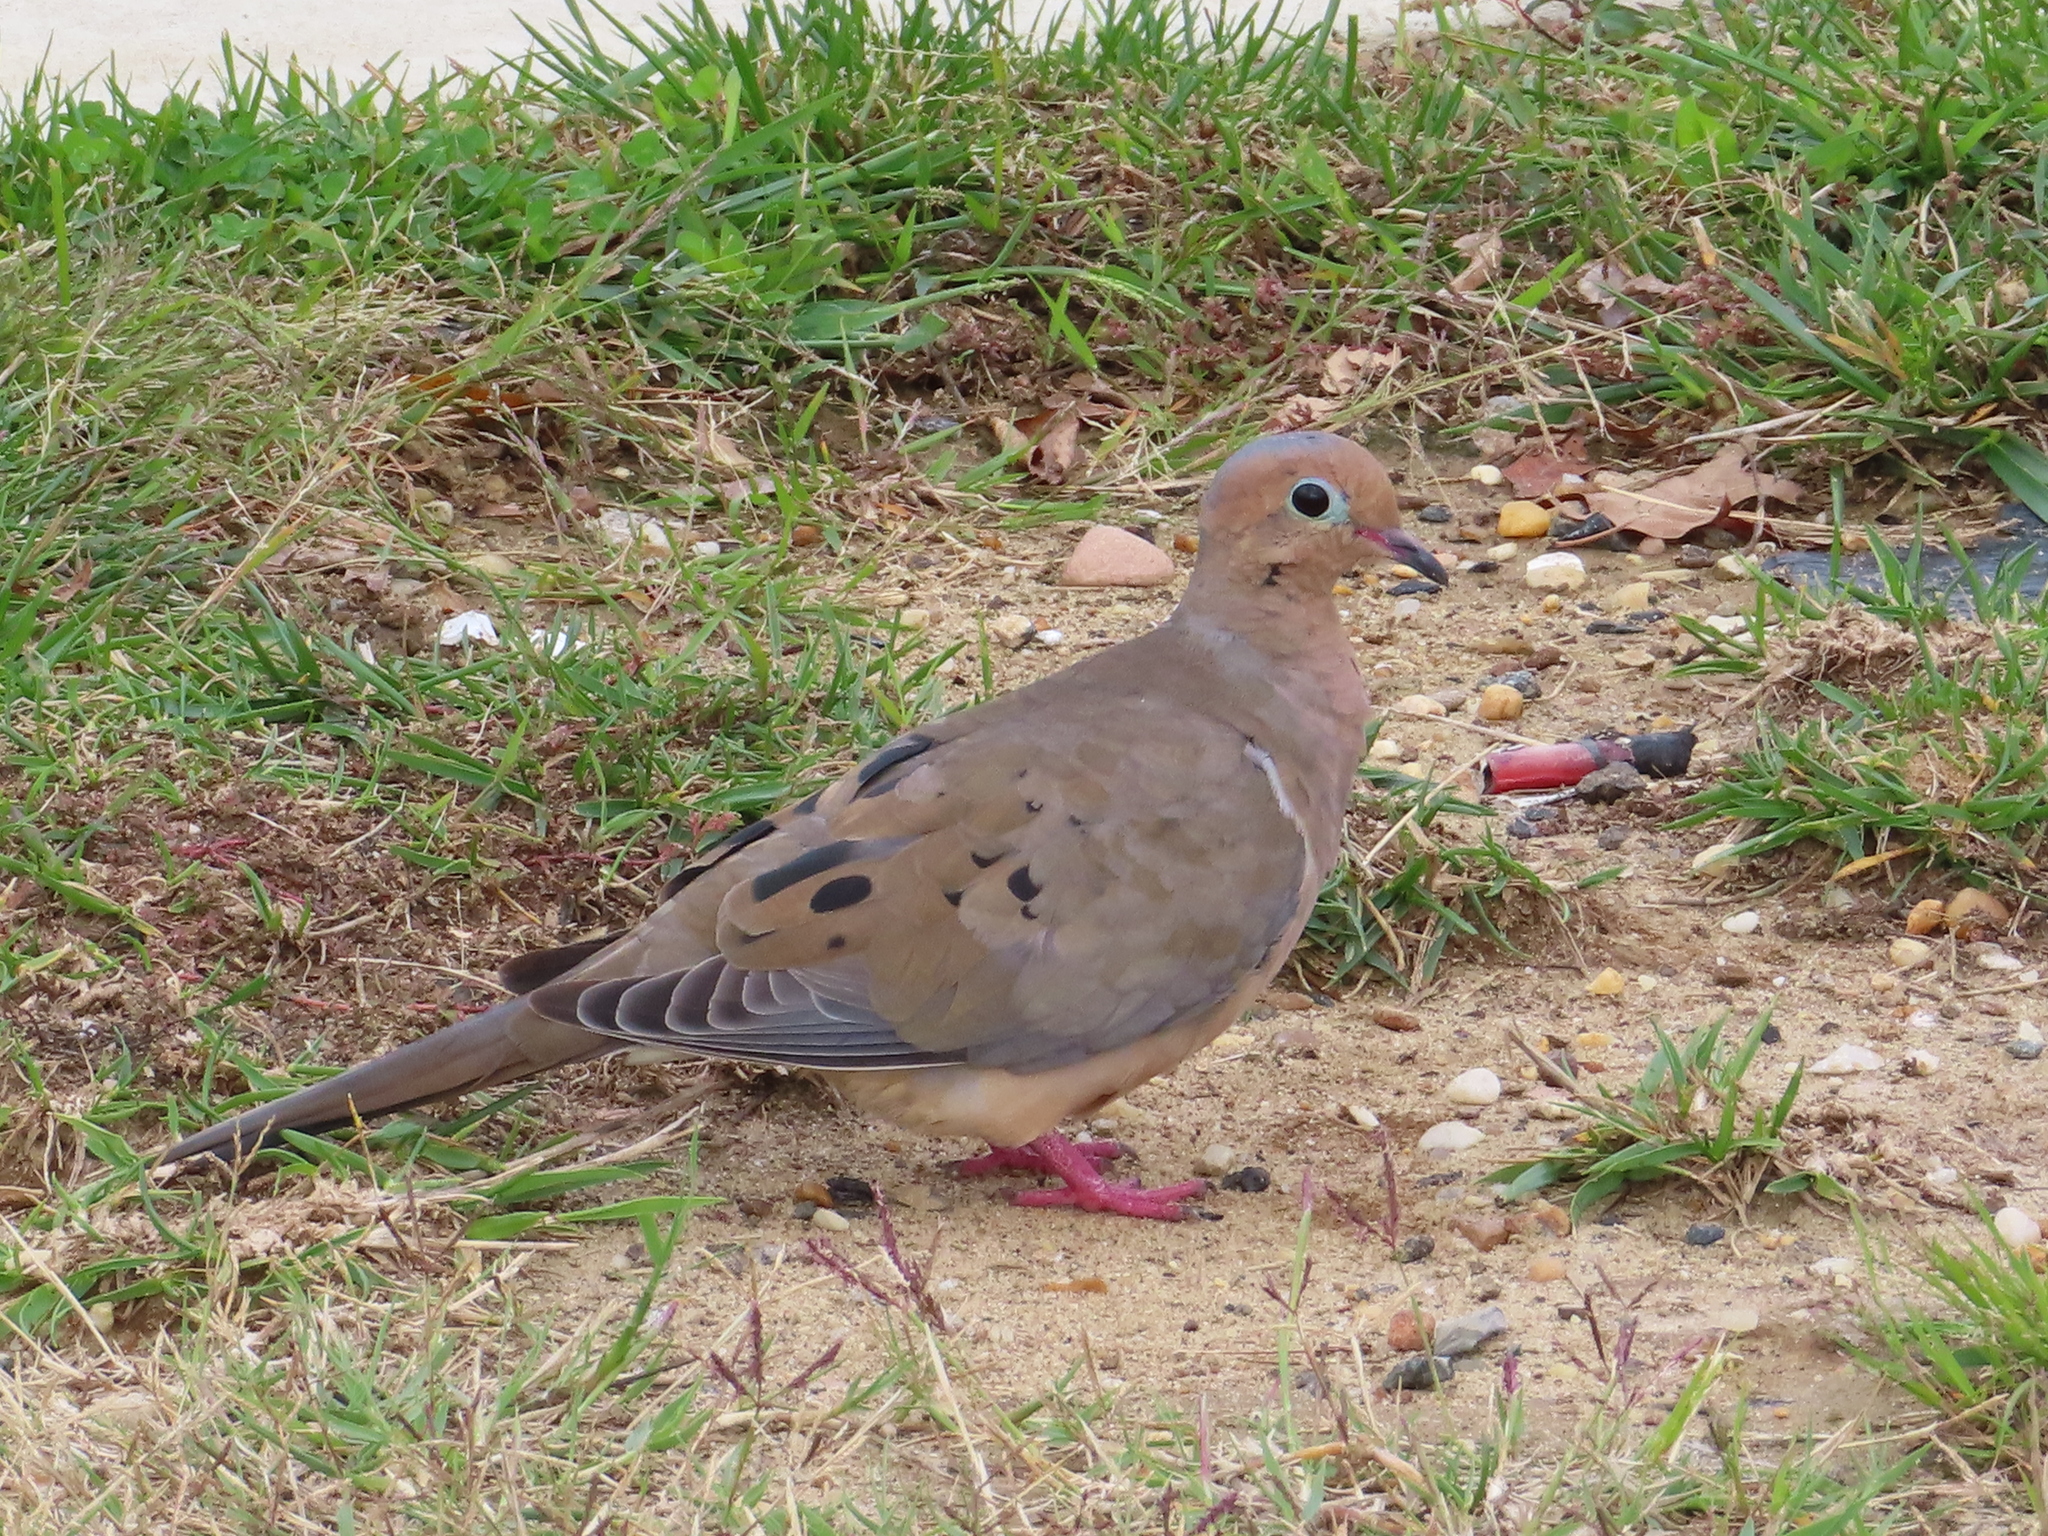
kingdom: Animalia
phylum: Chordata
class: Aves
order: Columbiformes
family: Columbidae
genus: Zenaida
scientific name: Zenaida macroura
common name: Mourning dove
